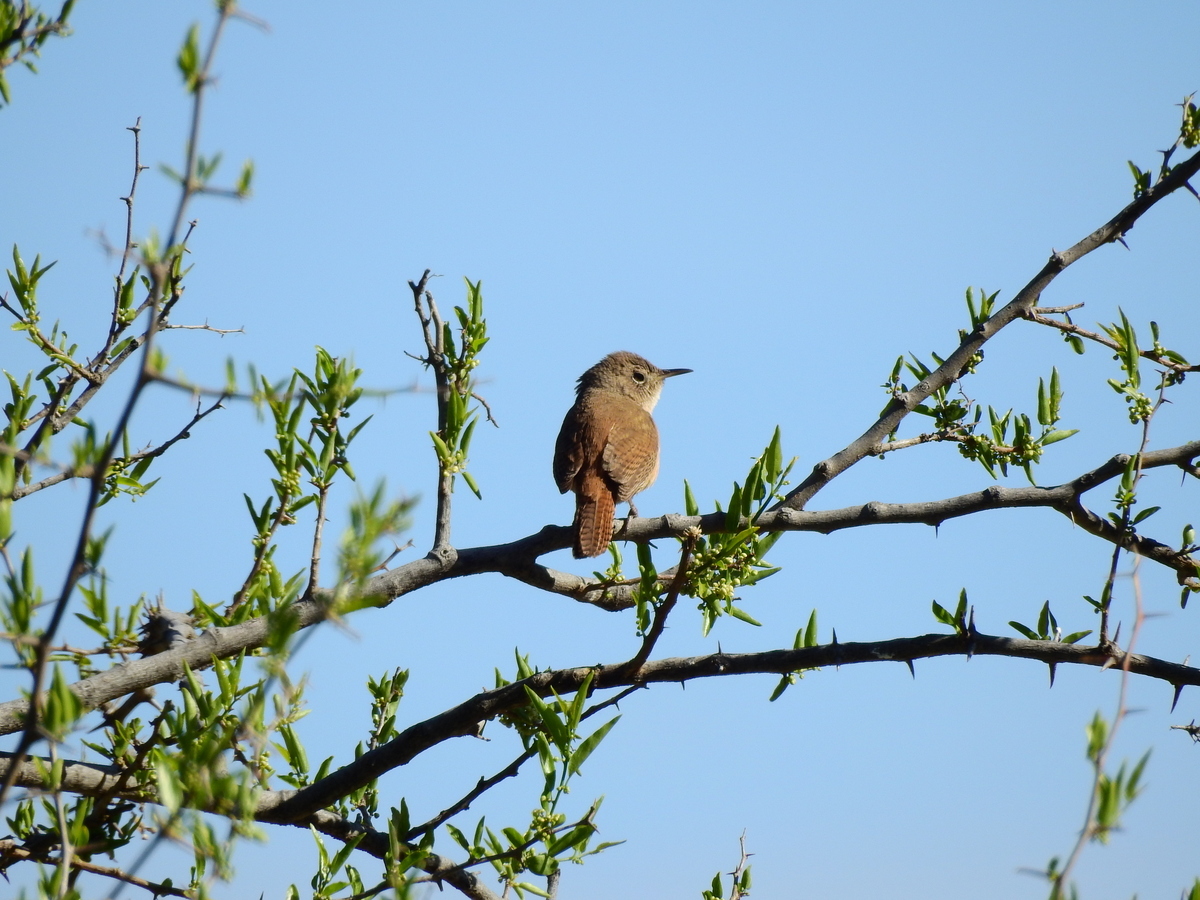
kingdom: Animalia
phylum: Chordata
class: Aves
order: Passeriformes
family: Troglodytidae
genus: Troglodytes
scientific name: Troglodytes aedon
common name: House wren
